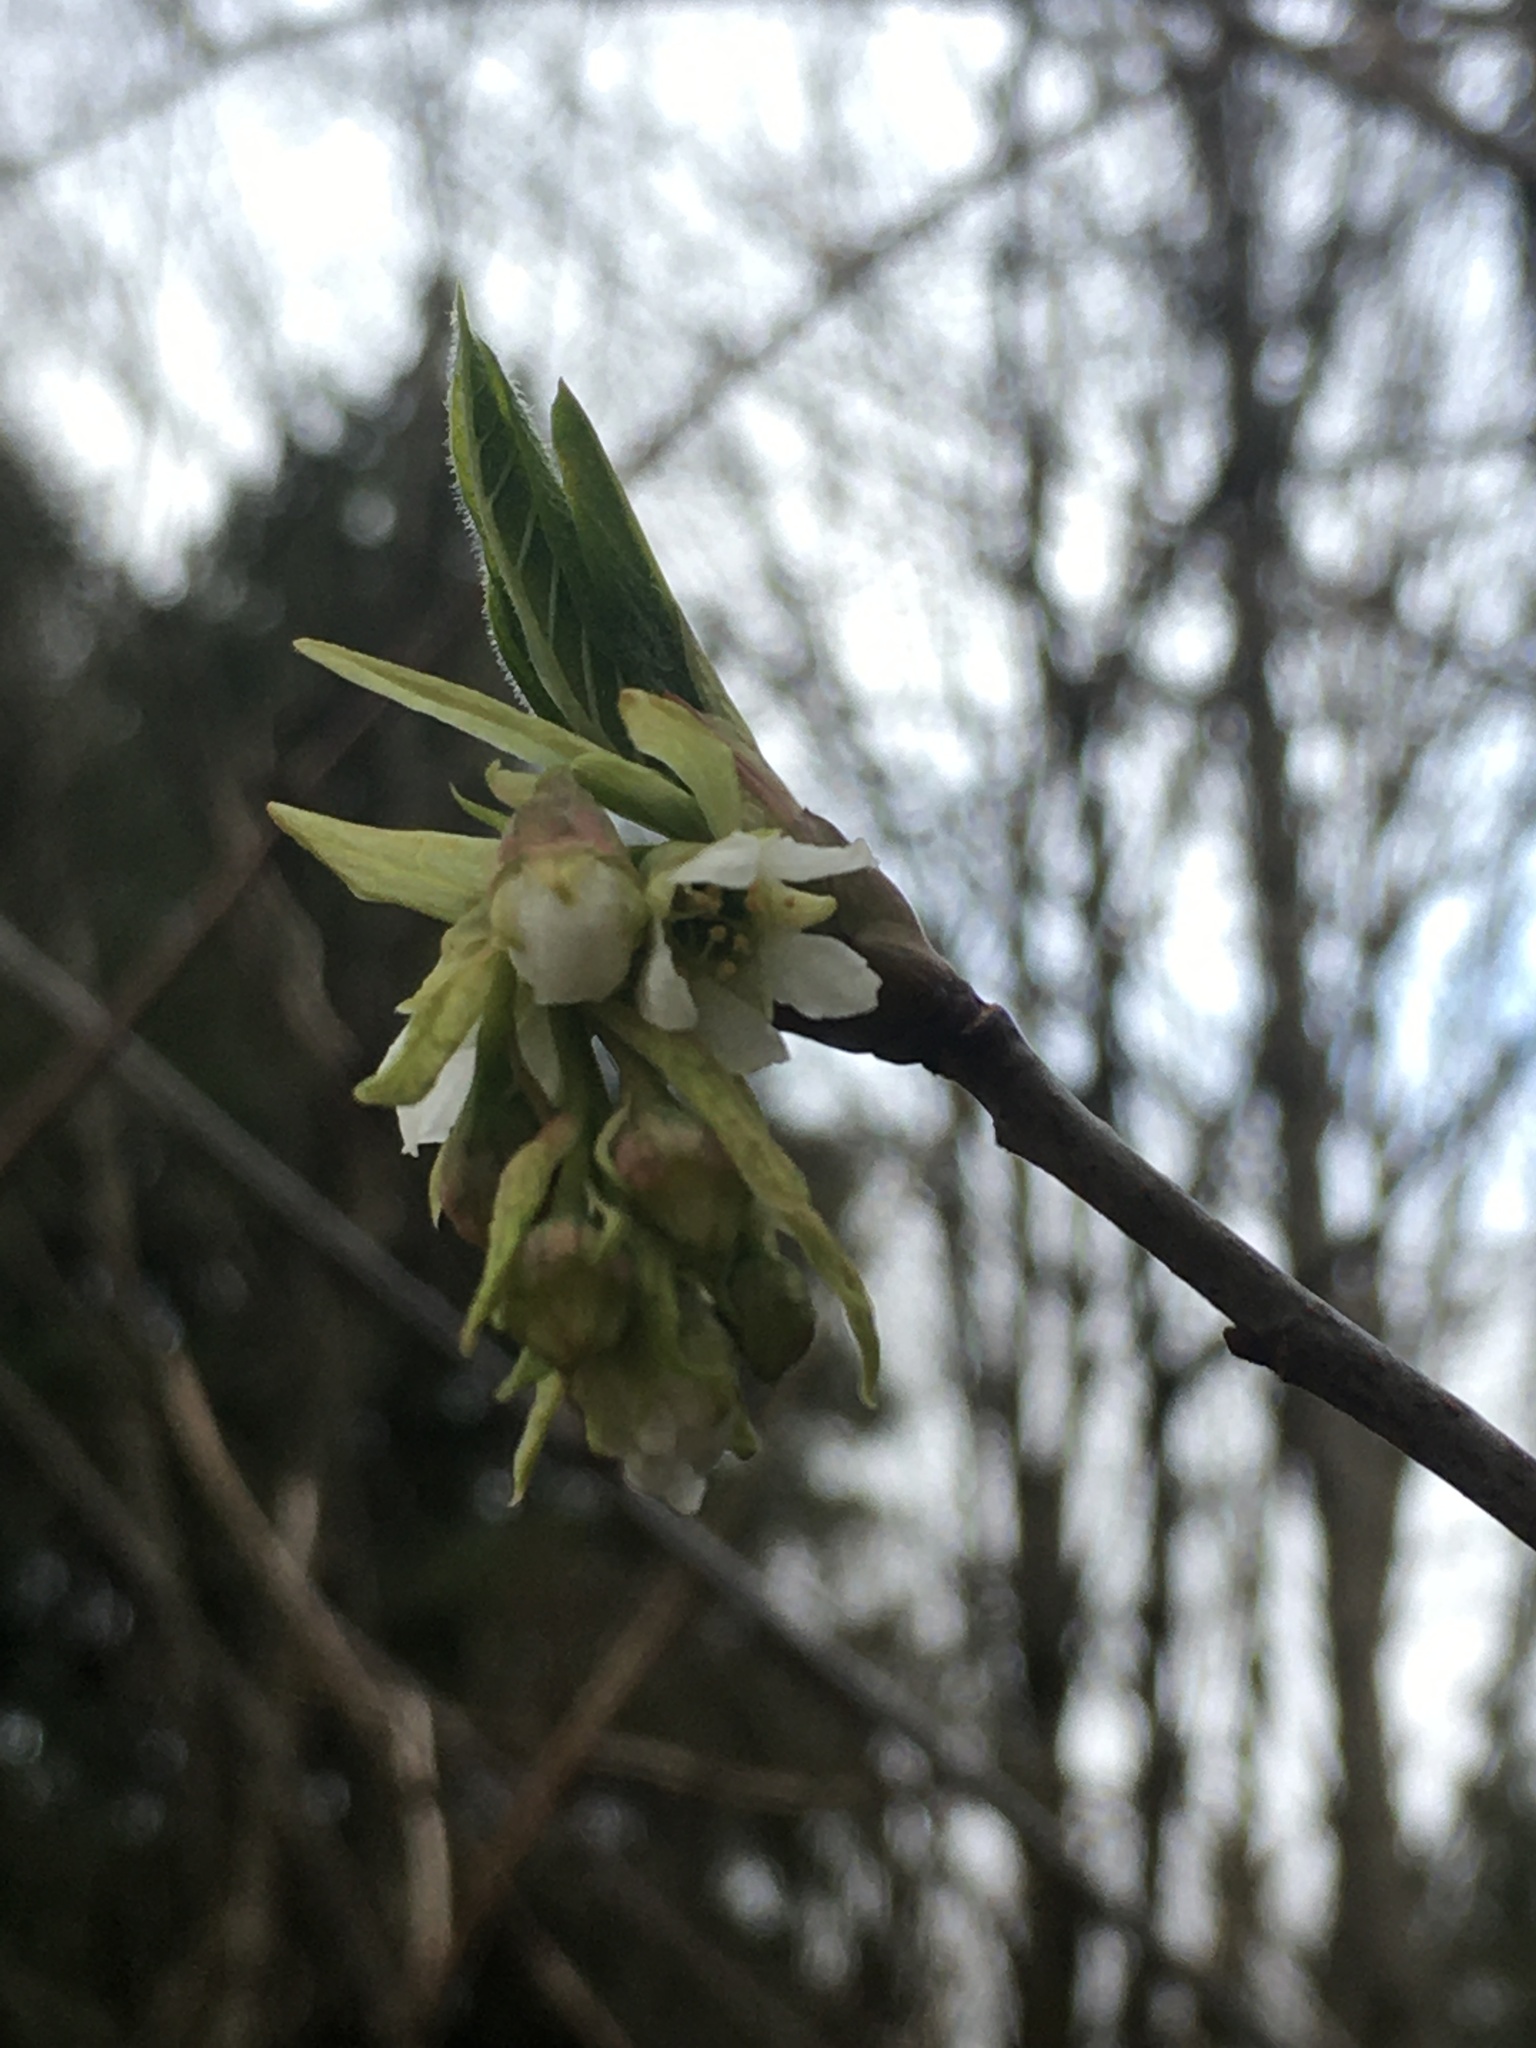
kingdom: Plantae
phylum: Tracheophyta
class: Magnoliopsida
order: Rosales
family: Rosaceae
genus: Oemleria
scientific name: Oemleria cerasiformis
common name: Osoberry
